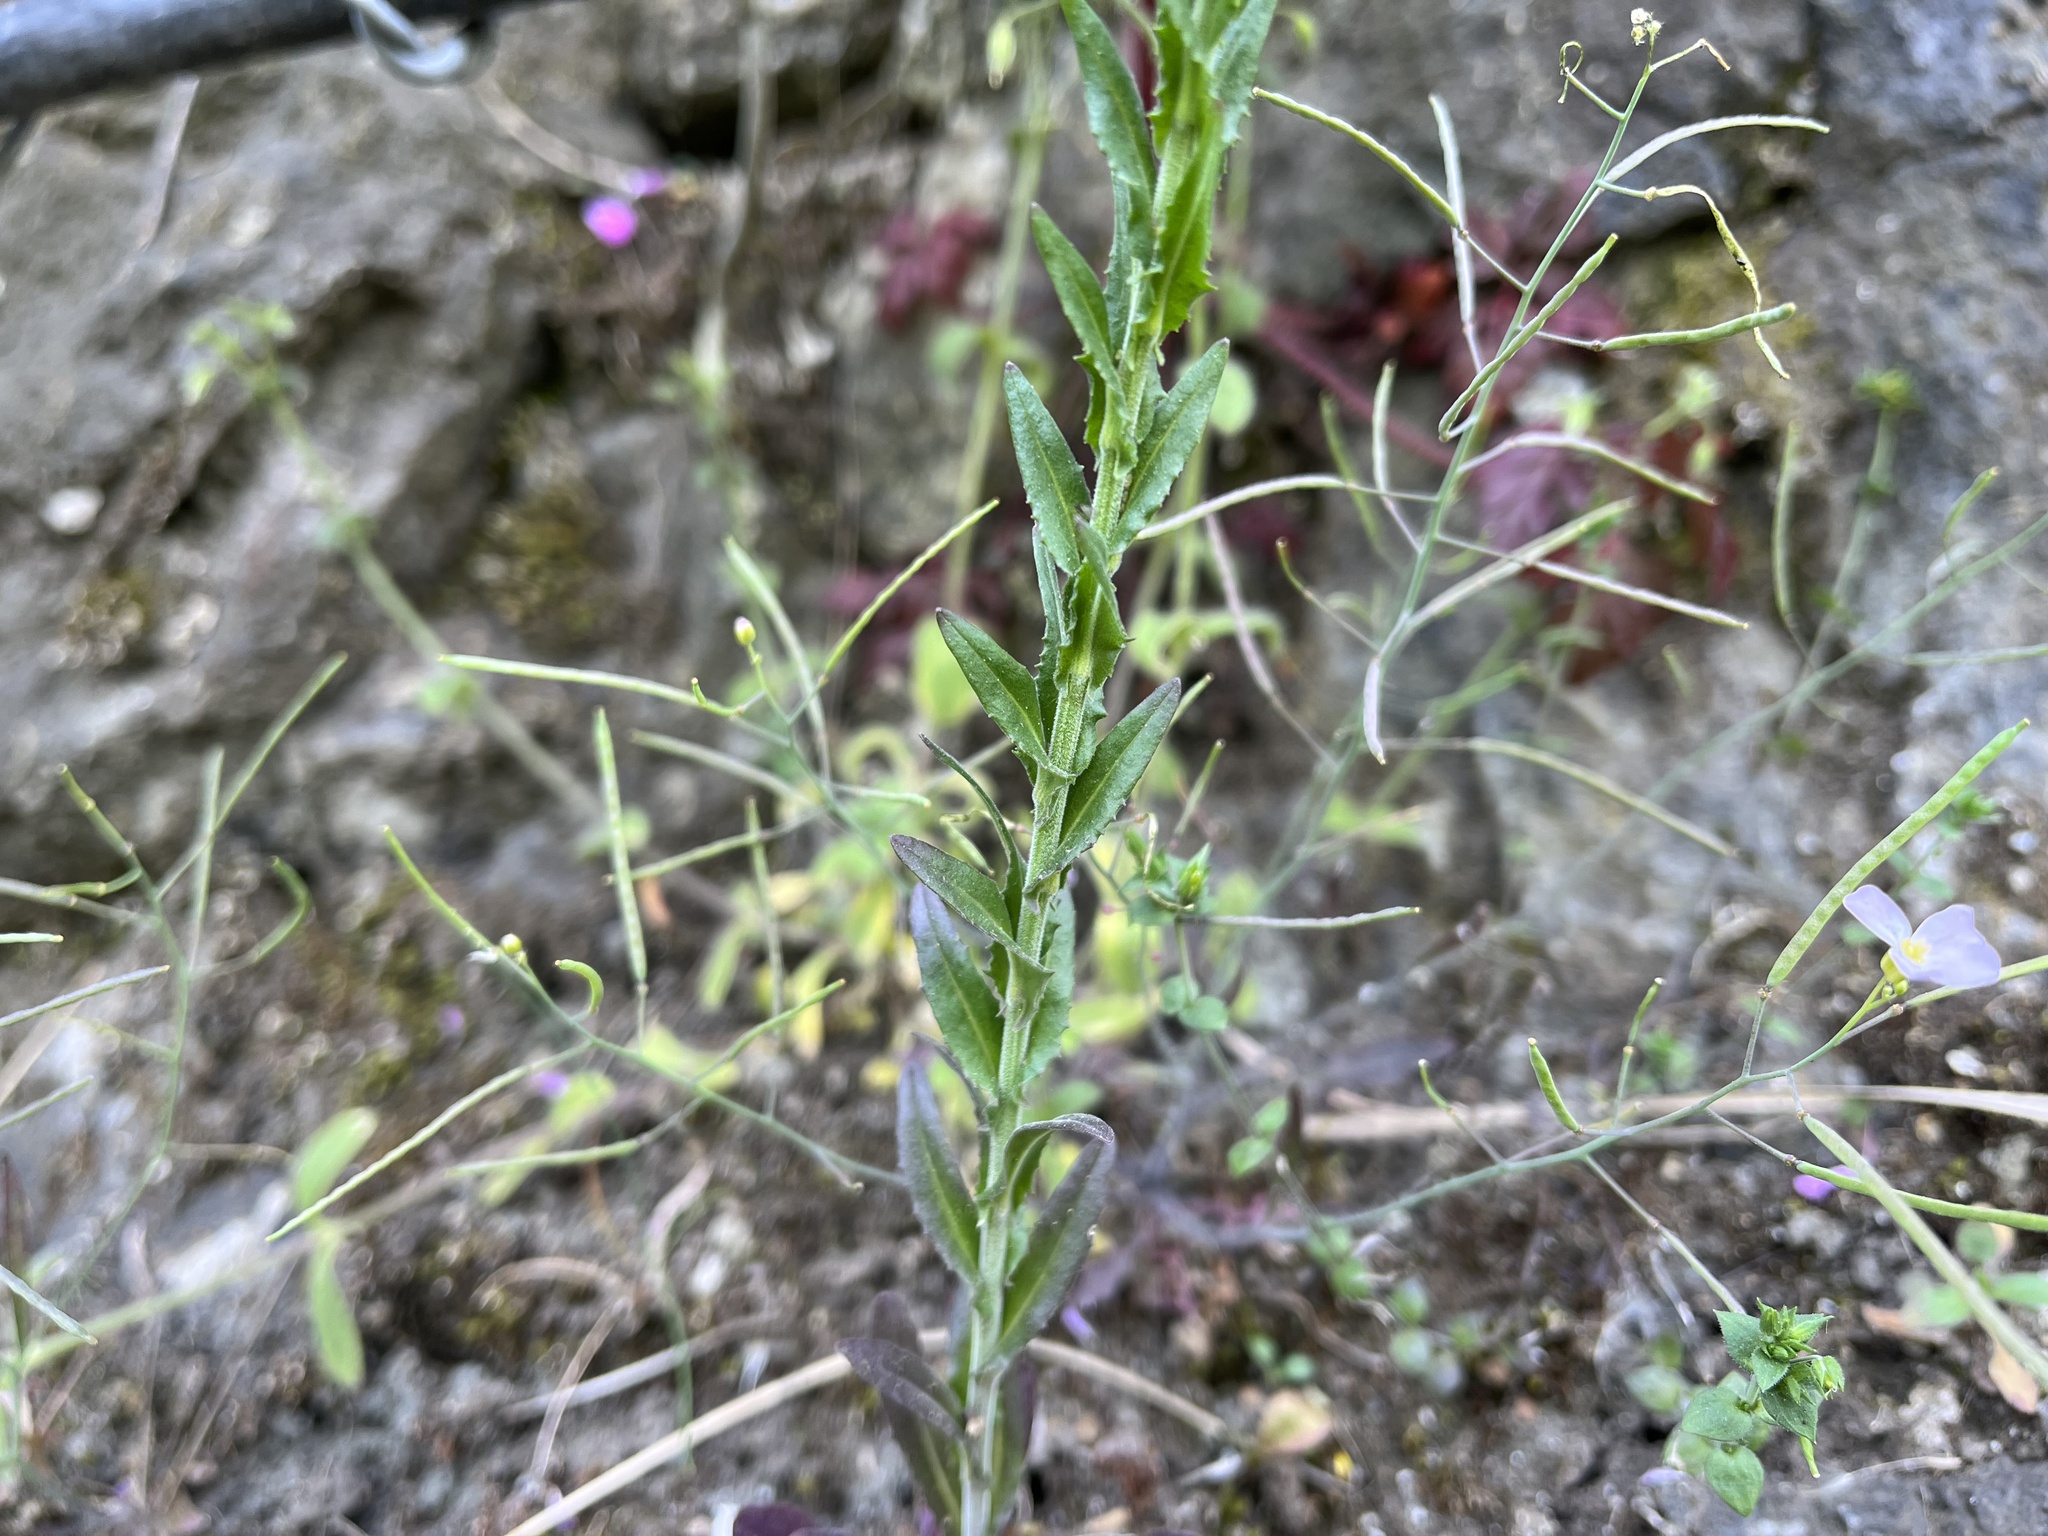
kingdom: Plantae
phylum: Tracheophyta
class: Magnoliopsida
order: Brassicales
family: Brassicaceae
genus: Lepidium
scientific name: Lepidium campestre
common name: Field pepperwort
